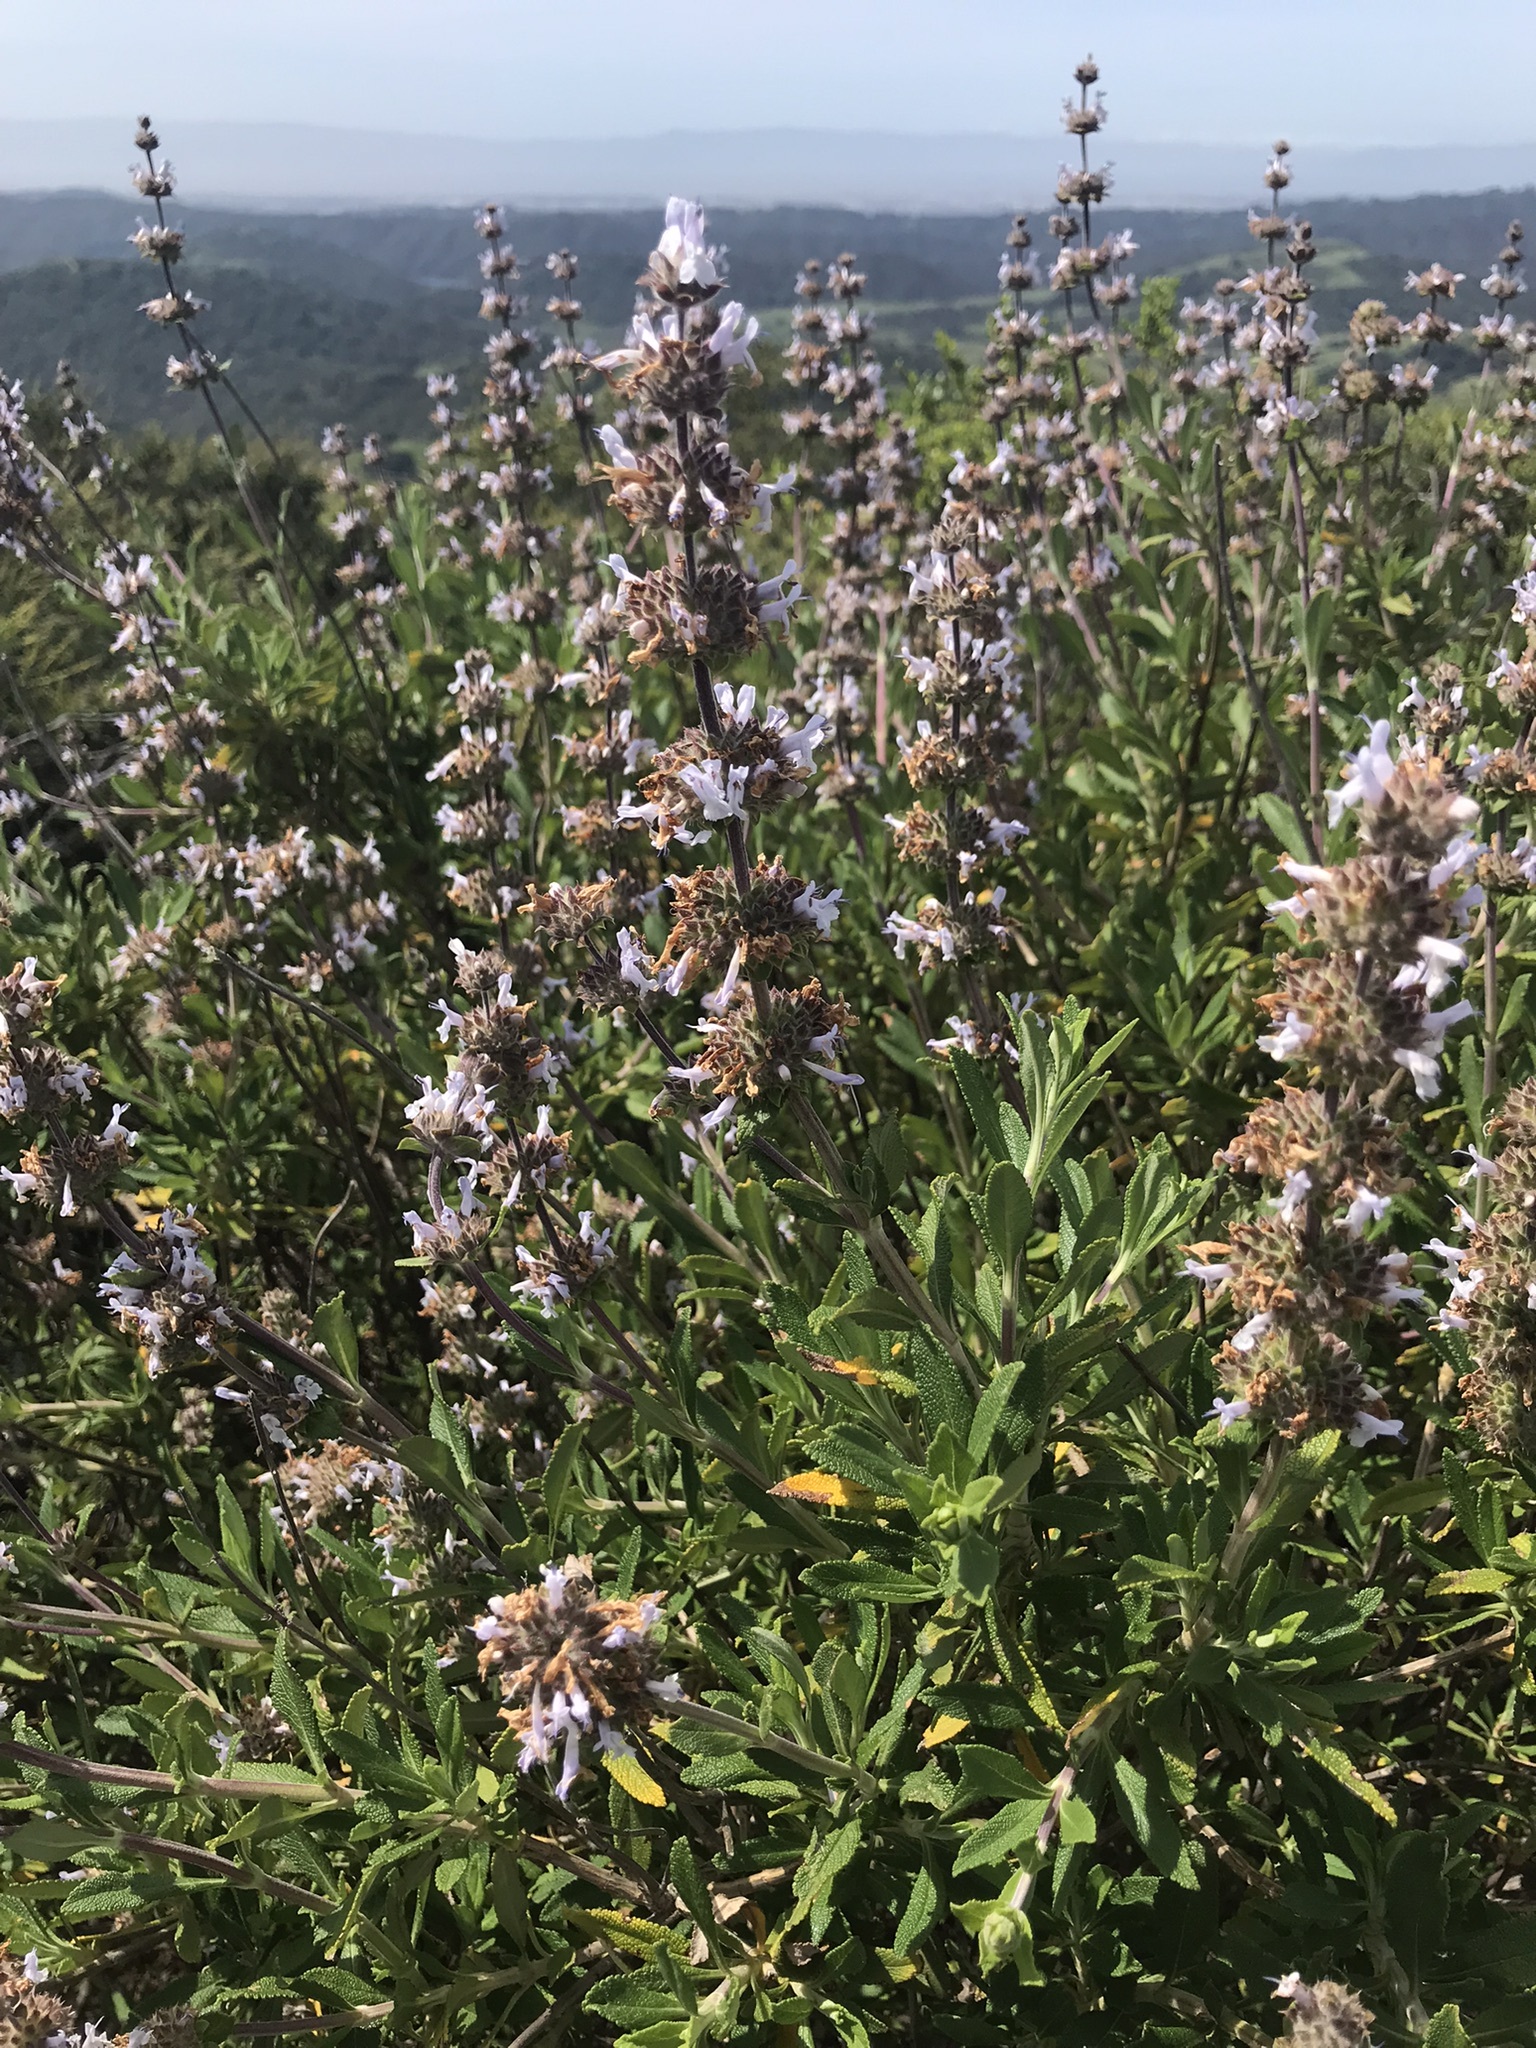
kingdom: Plantae
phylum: Tracheophyta
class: Magnoliopsida
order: Lamiales
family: Lamiaceae
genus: Salvia
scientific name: Salvia mellifera
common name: Black sage
